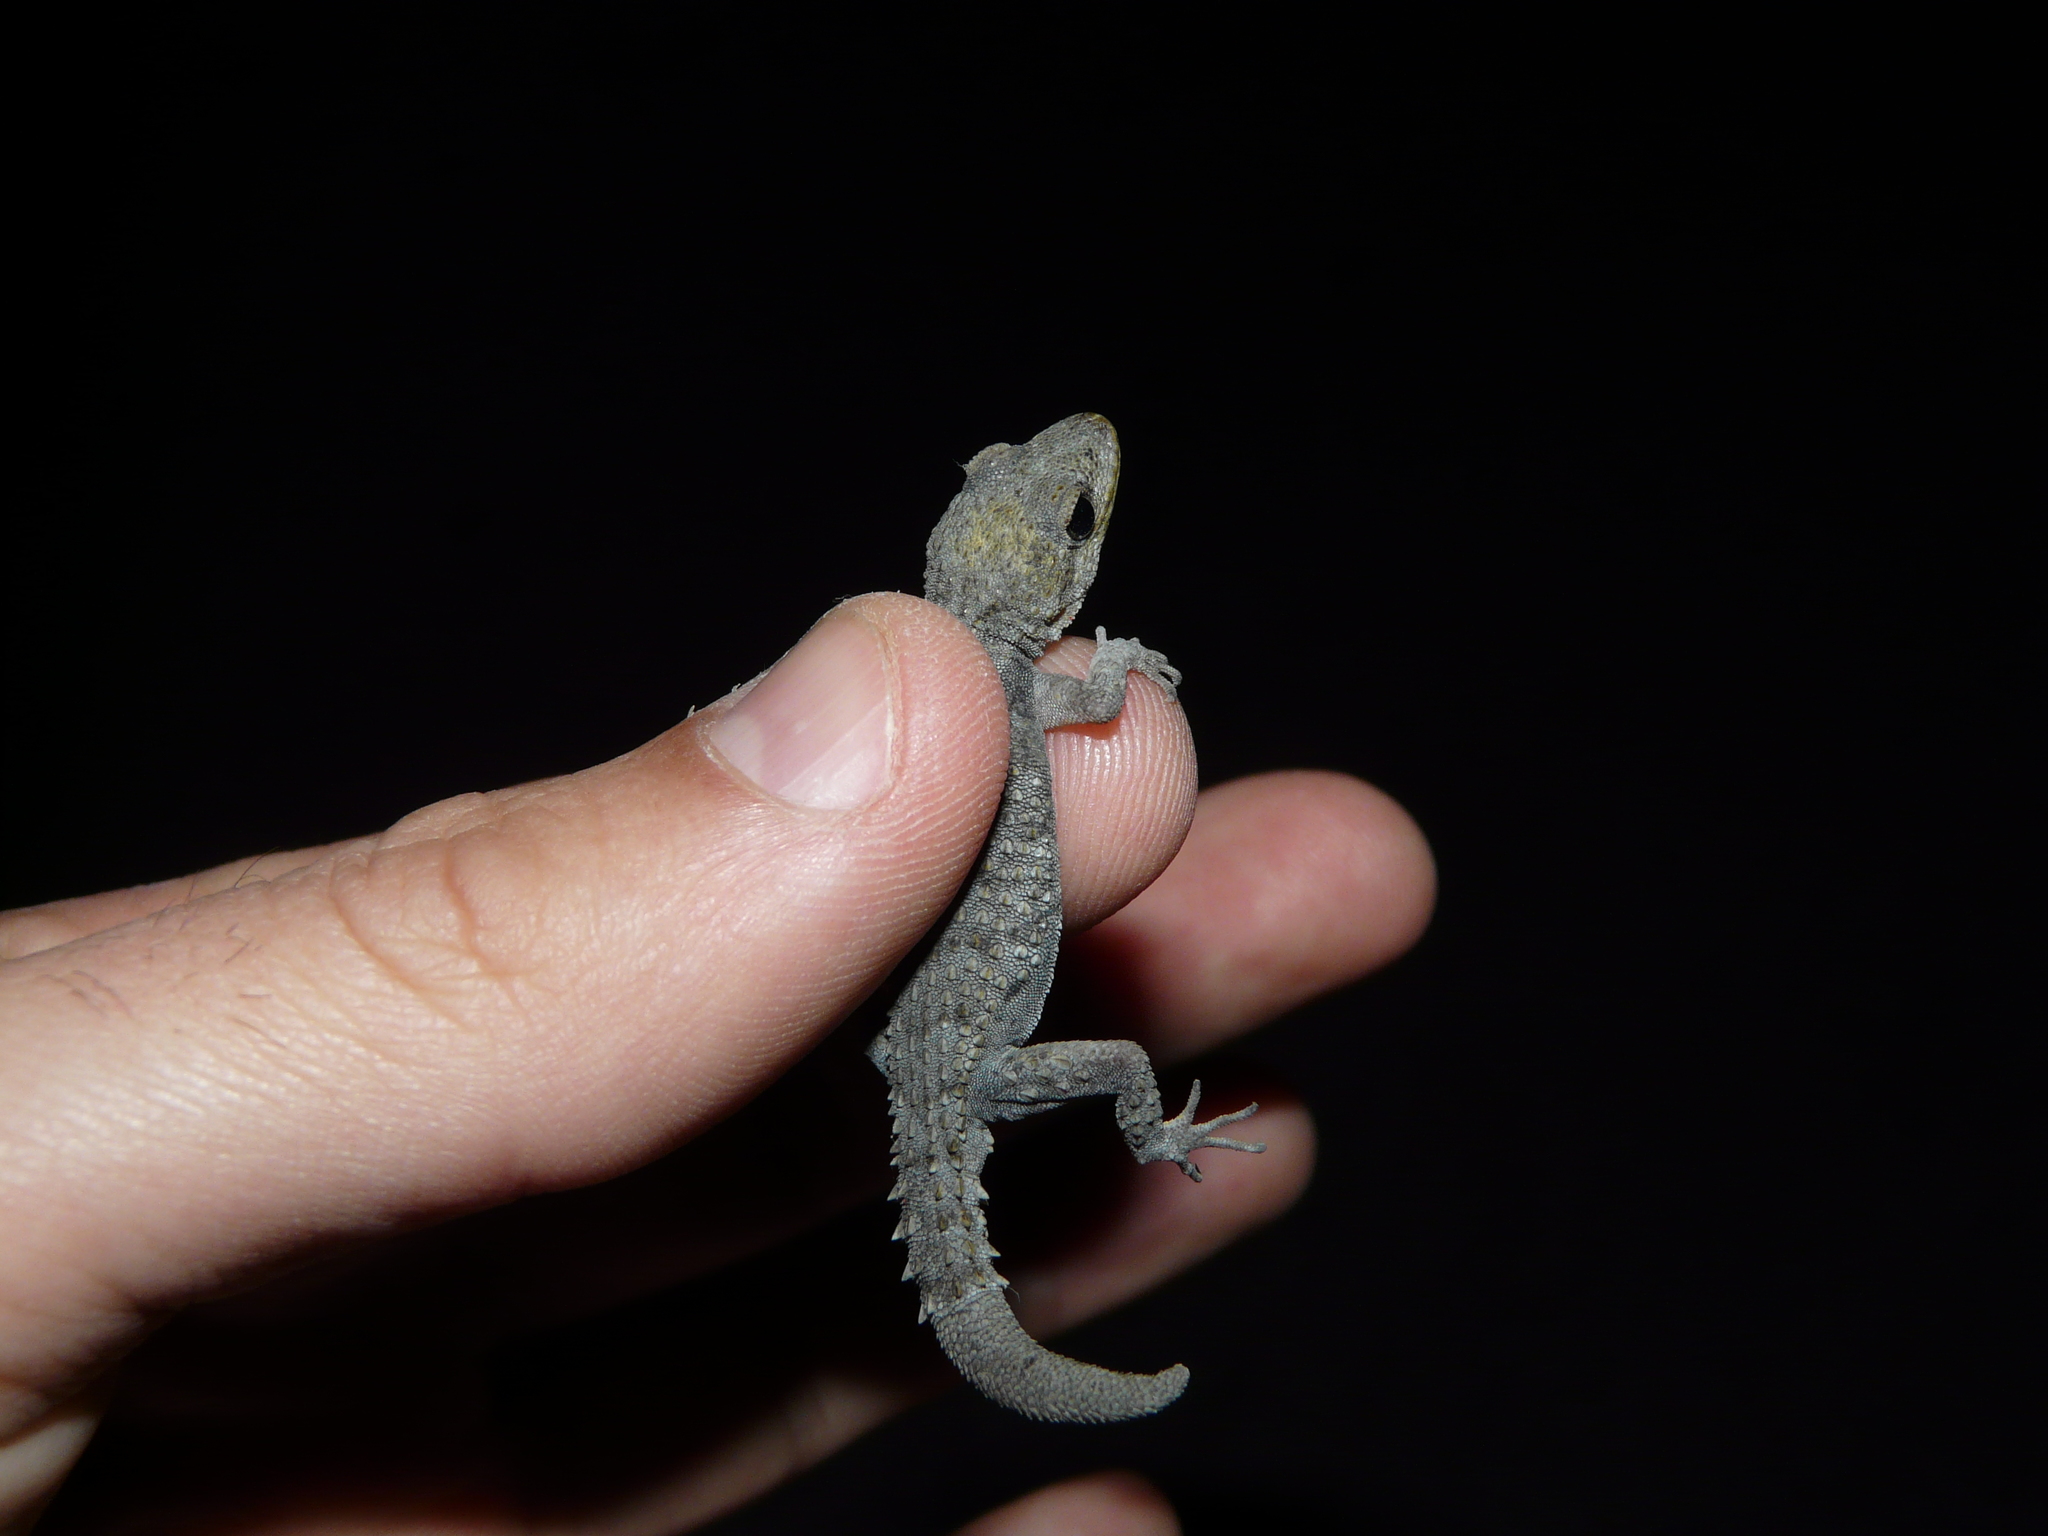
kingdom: Animalia
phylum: Chordata
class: Squamata
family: Gekkonidae
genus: Mediodactylus
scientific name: Mediodactylus kotschyi
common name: Kotschy's gecko
